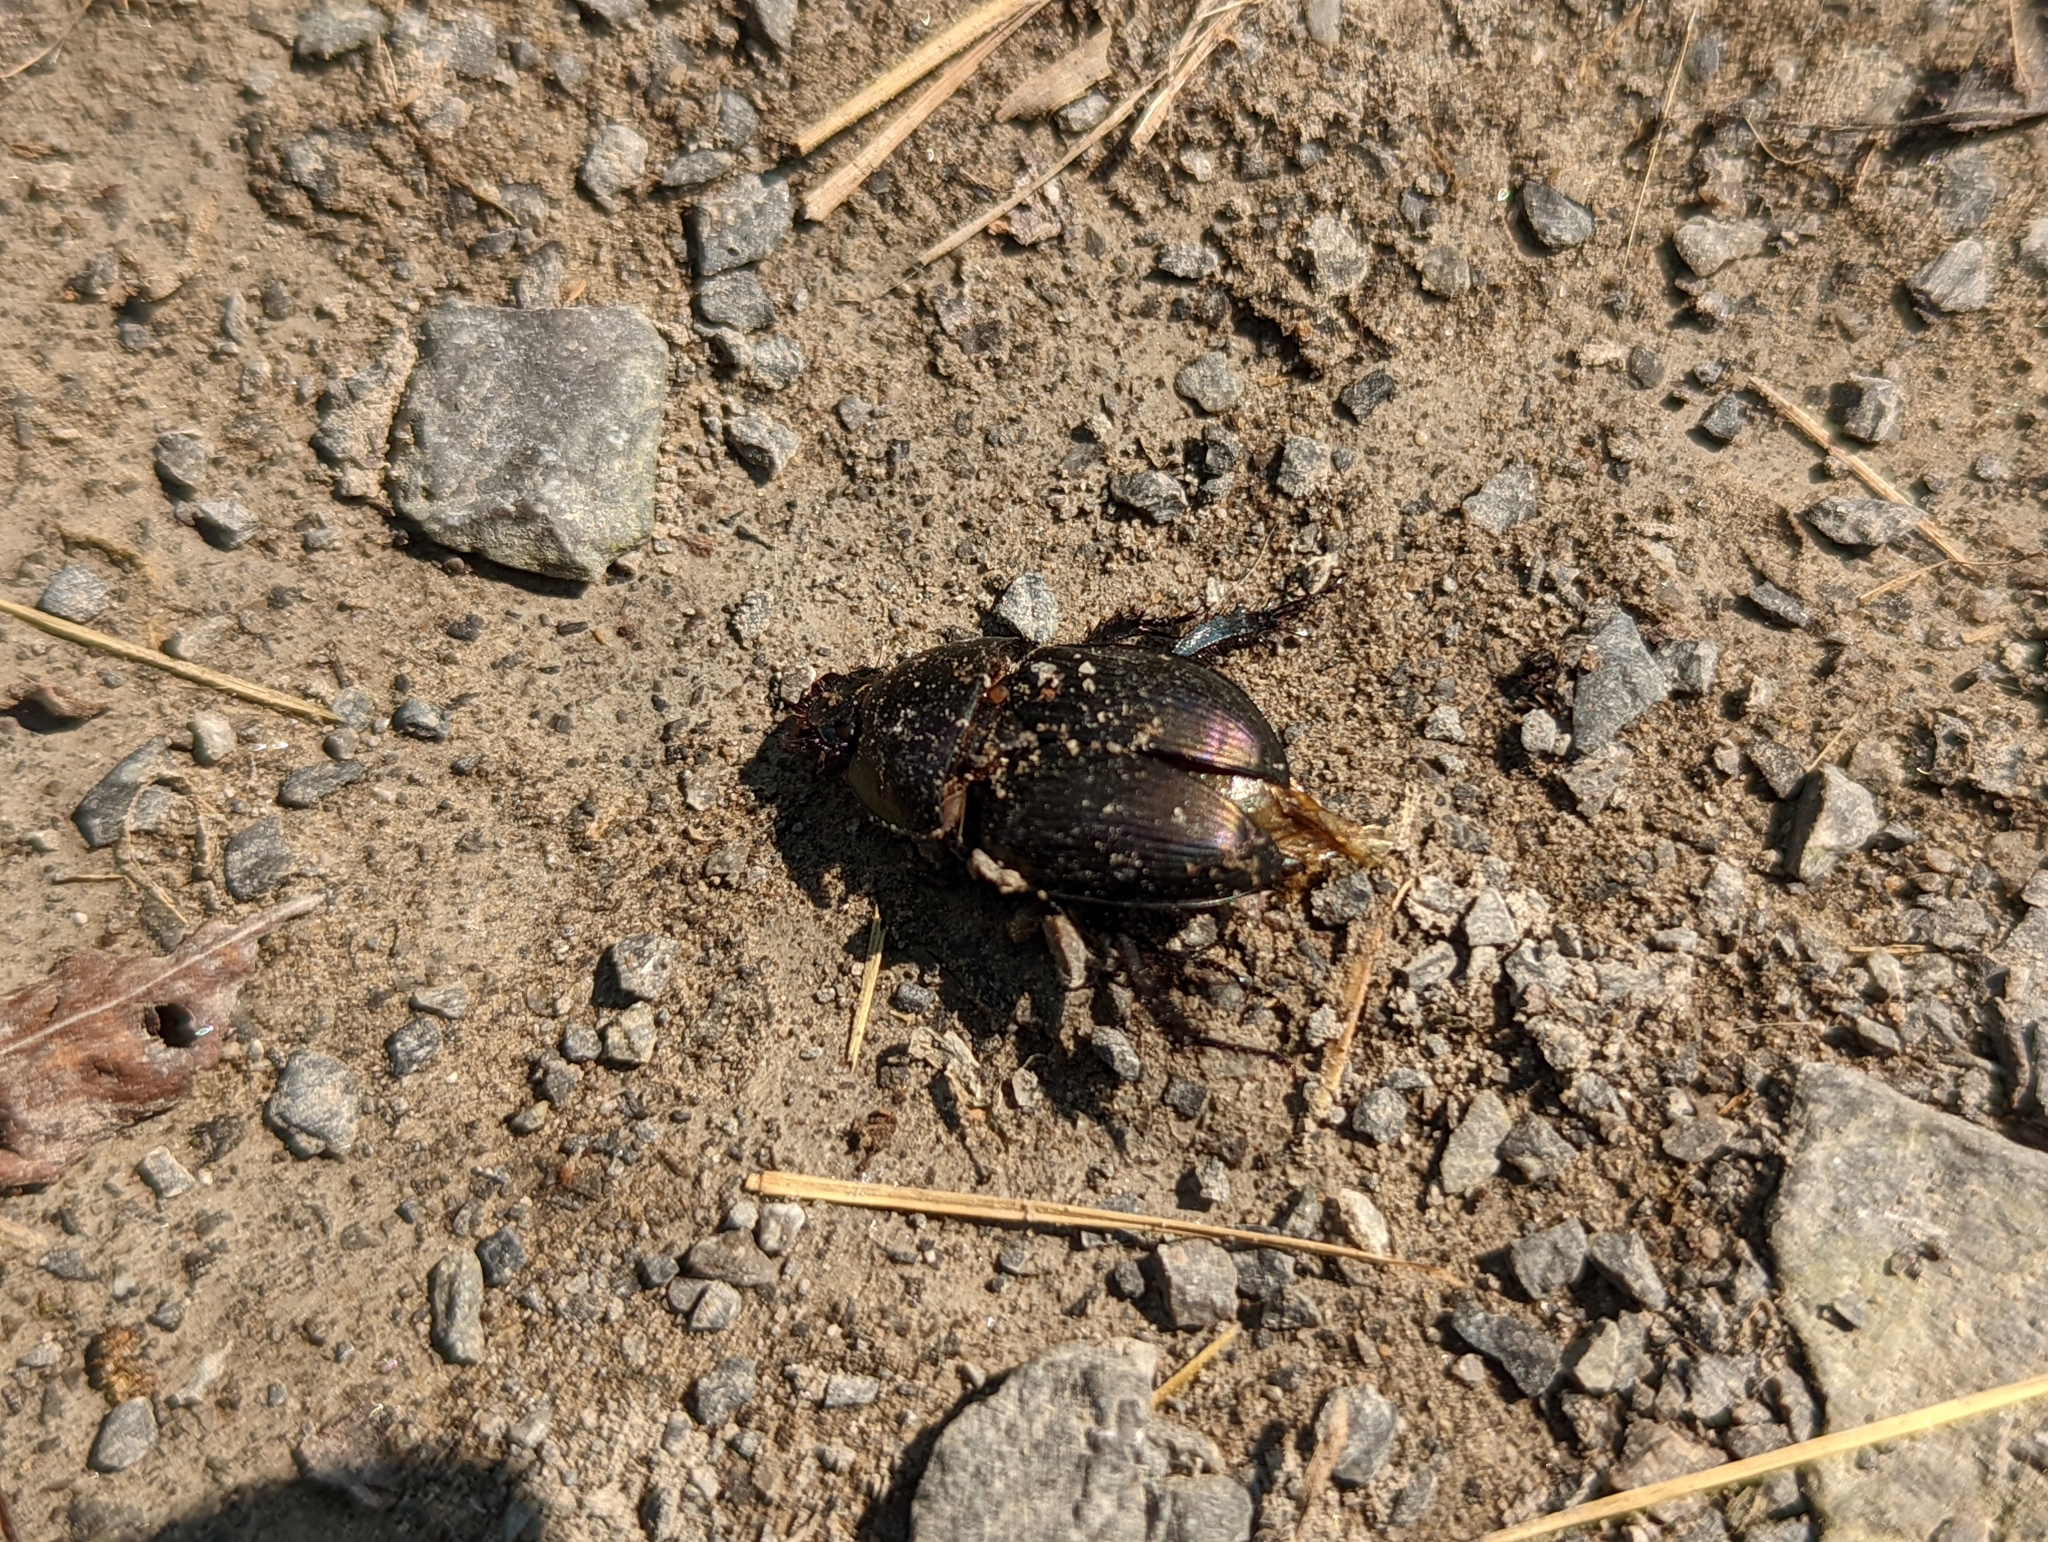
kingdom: Animalia
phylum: Arthropoda
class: Insecta
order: Coleoptera
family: Geotrupidae
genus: Geotrupes
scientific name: Geotrupes splendidus
